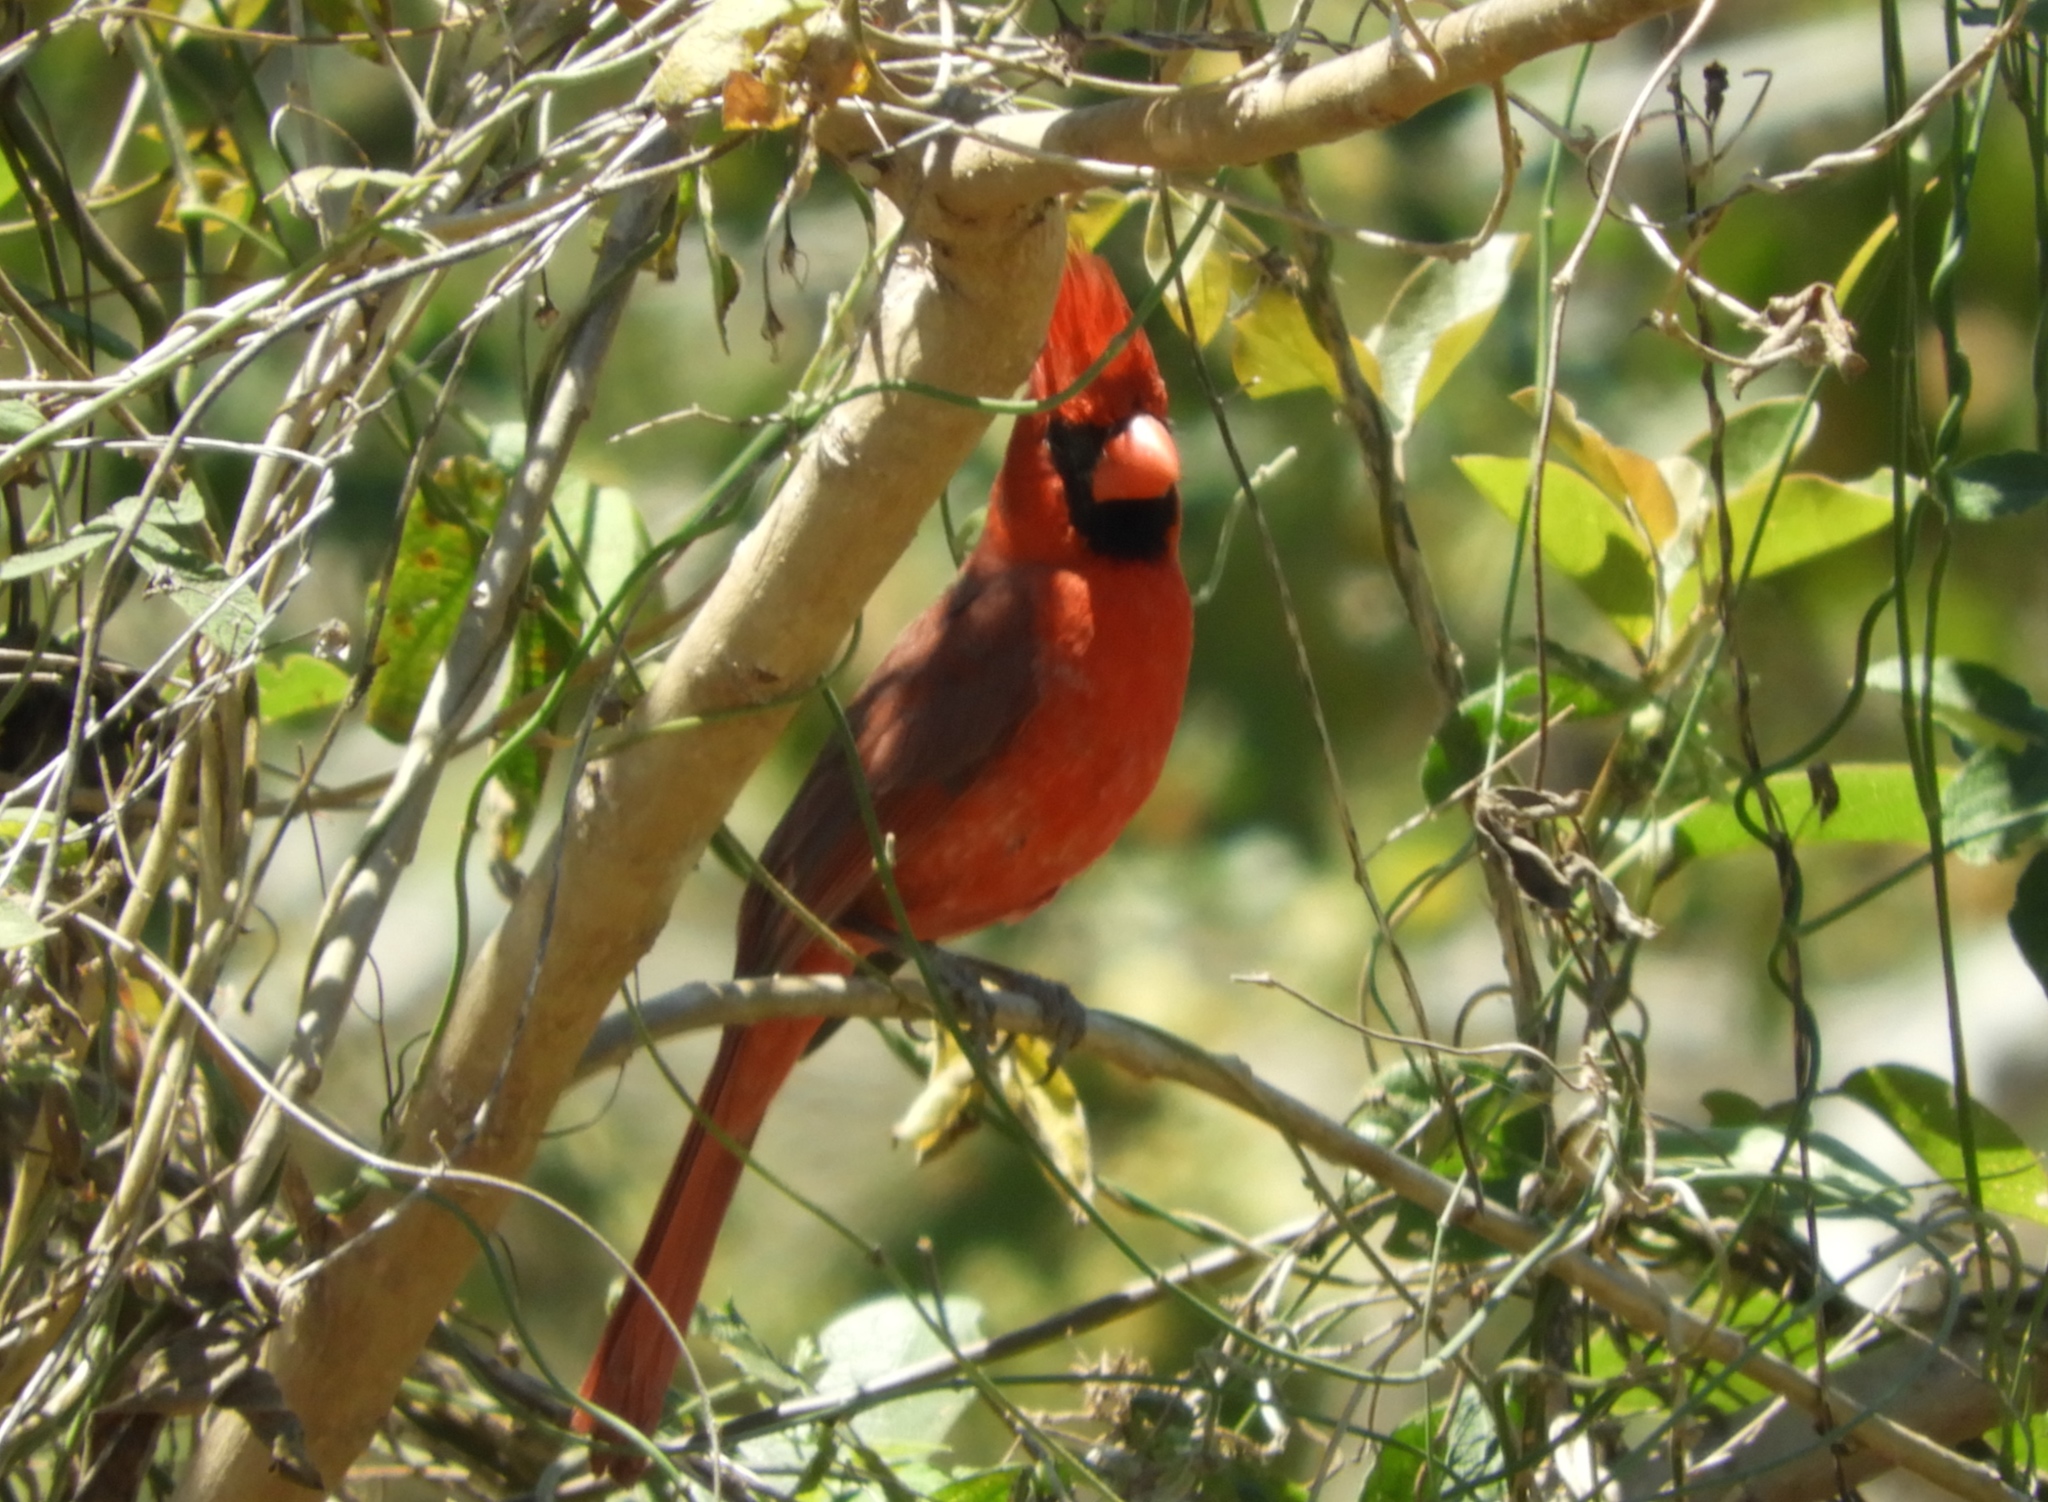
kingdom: Animalia
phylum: Chordata
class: Aves
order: Passeriformes
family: Cardinalidae
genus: Cardinalis
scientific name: Cardinalis cardinalis
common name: Northern cardinal
